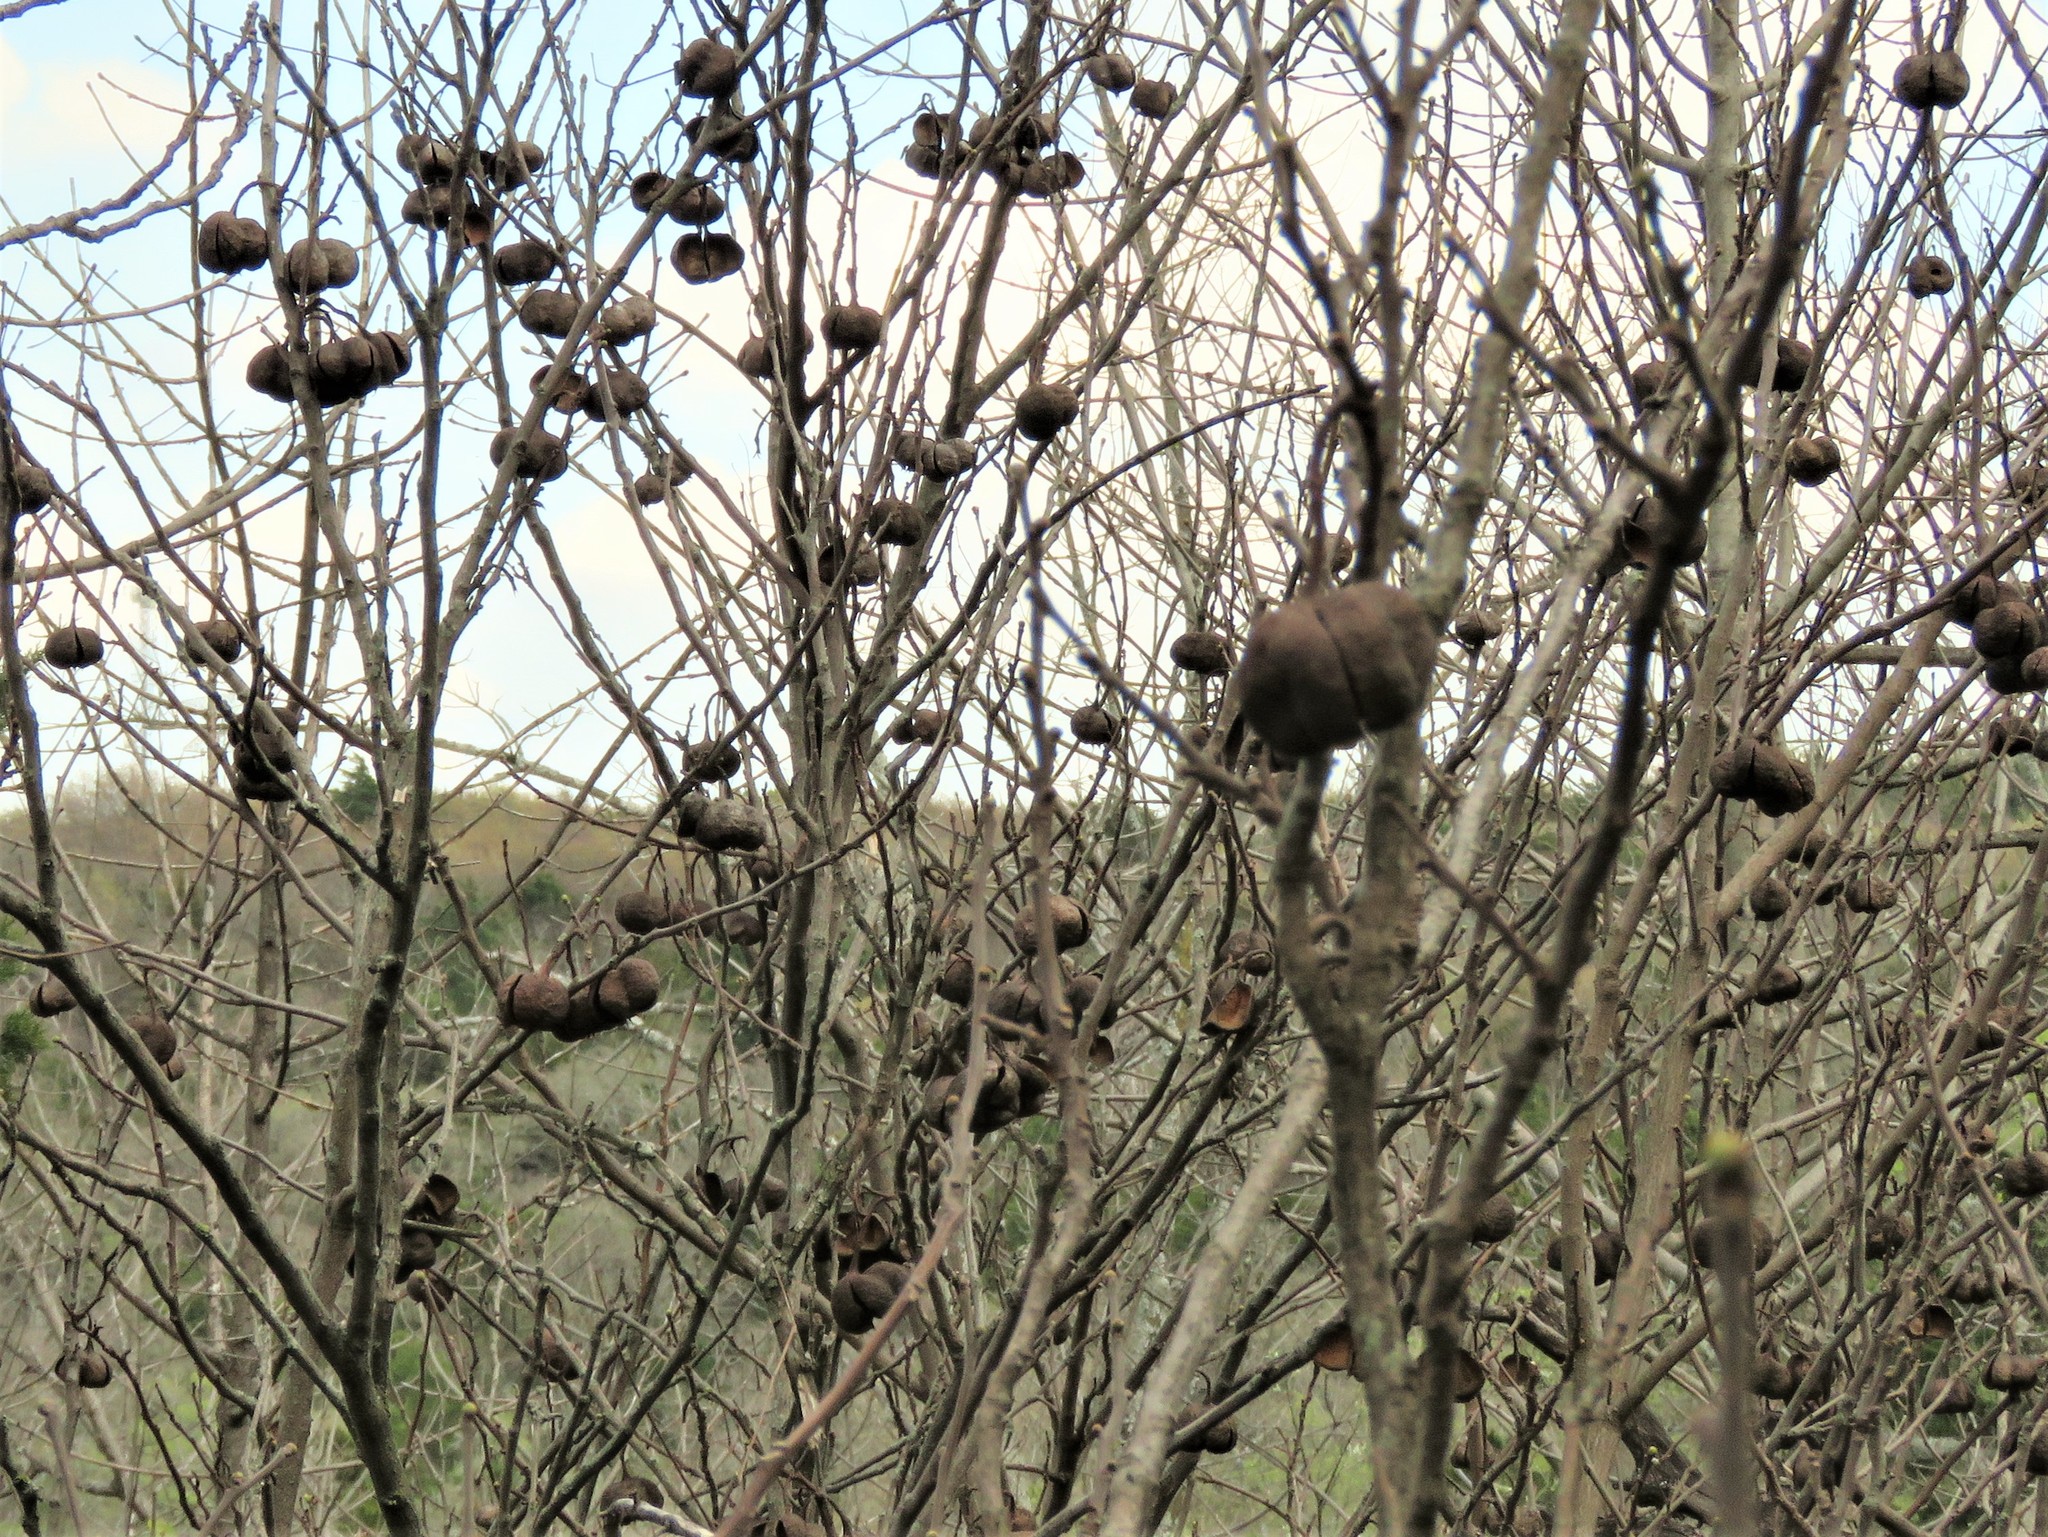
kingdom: Plantae
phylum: Tracheophyta
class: Magnoliopsida
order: Sapindales
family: Sapindaceae
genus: Ungnadia
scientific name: Ungnadia speciosa
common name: Texas-buckeye
